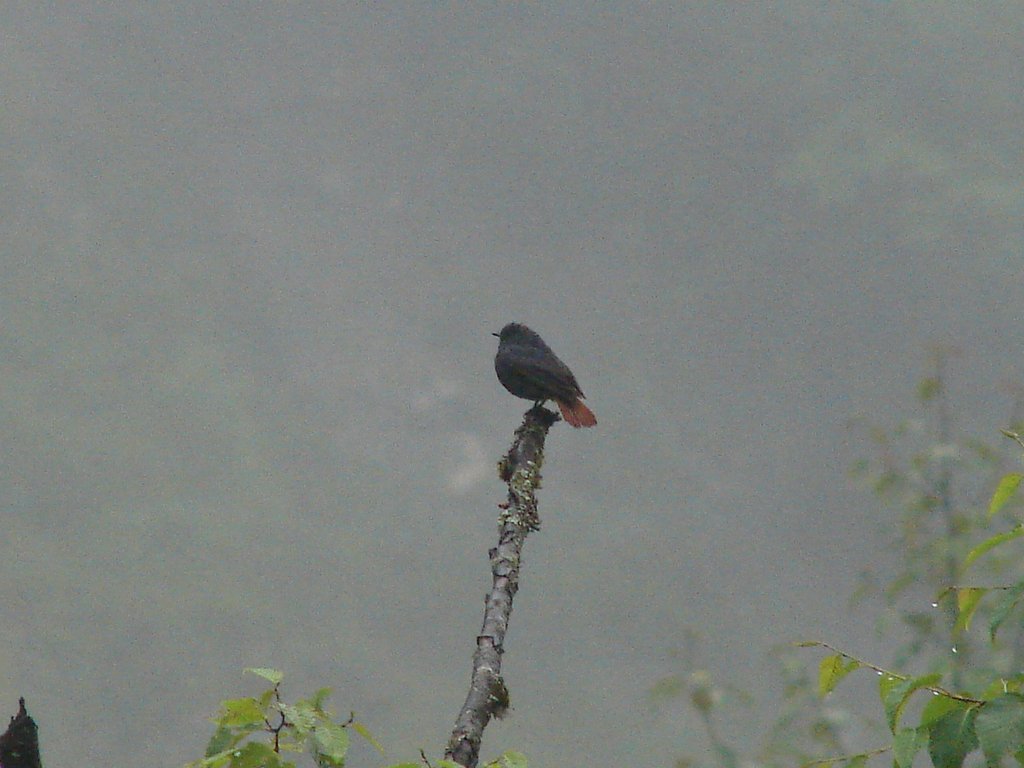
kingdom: Animalia
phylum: Chordata
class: Aves
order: Passeriformes
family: Muscicapidae
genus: Phoenicurus
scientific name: Phoenicurus fuliginosus
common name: Plumbeous water redstart
